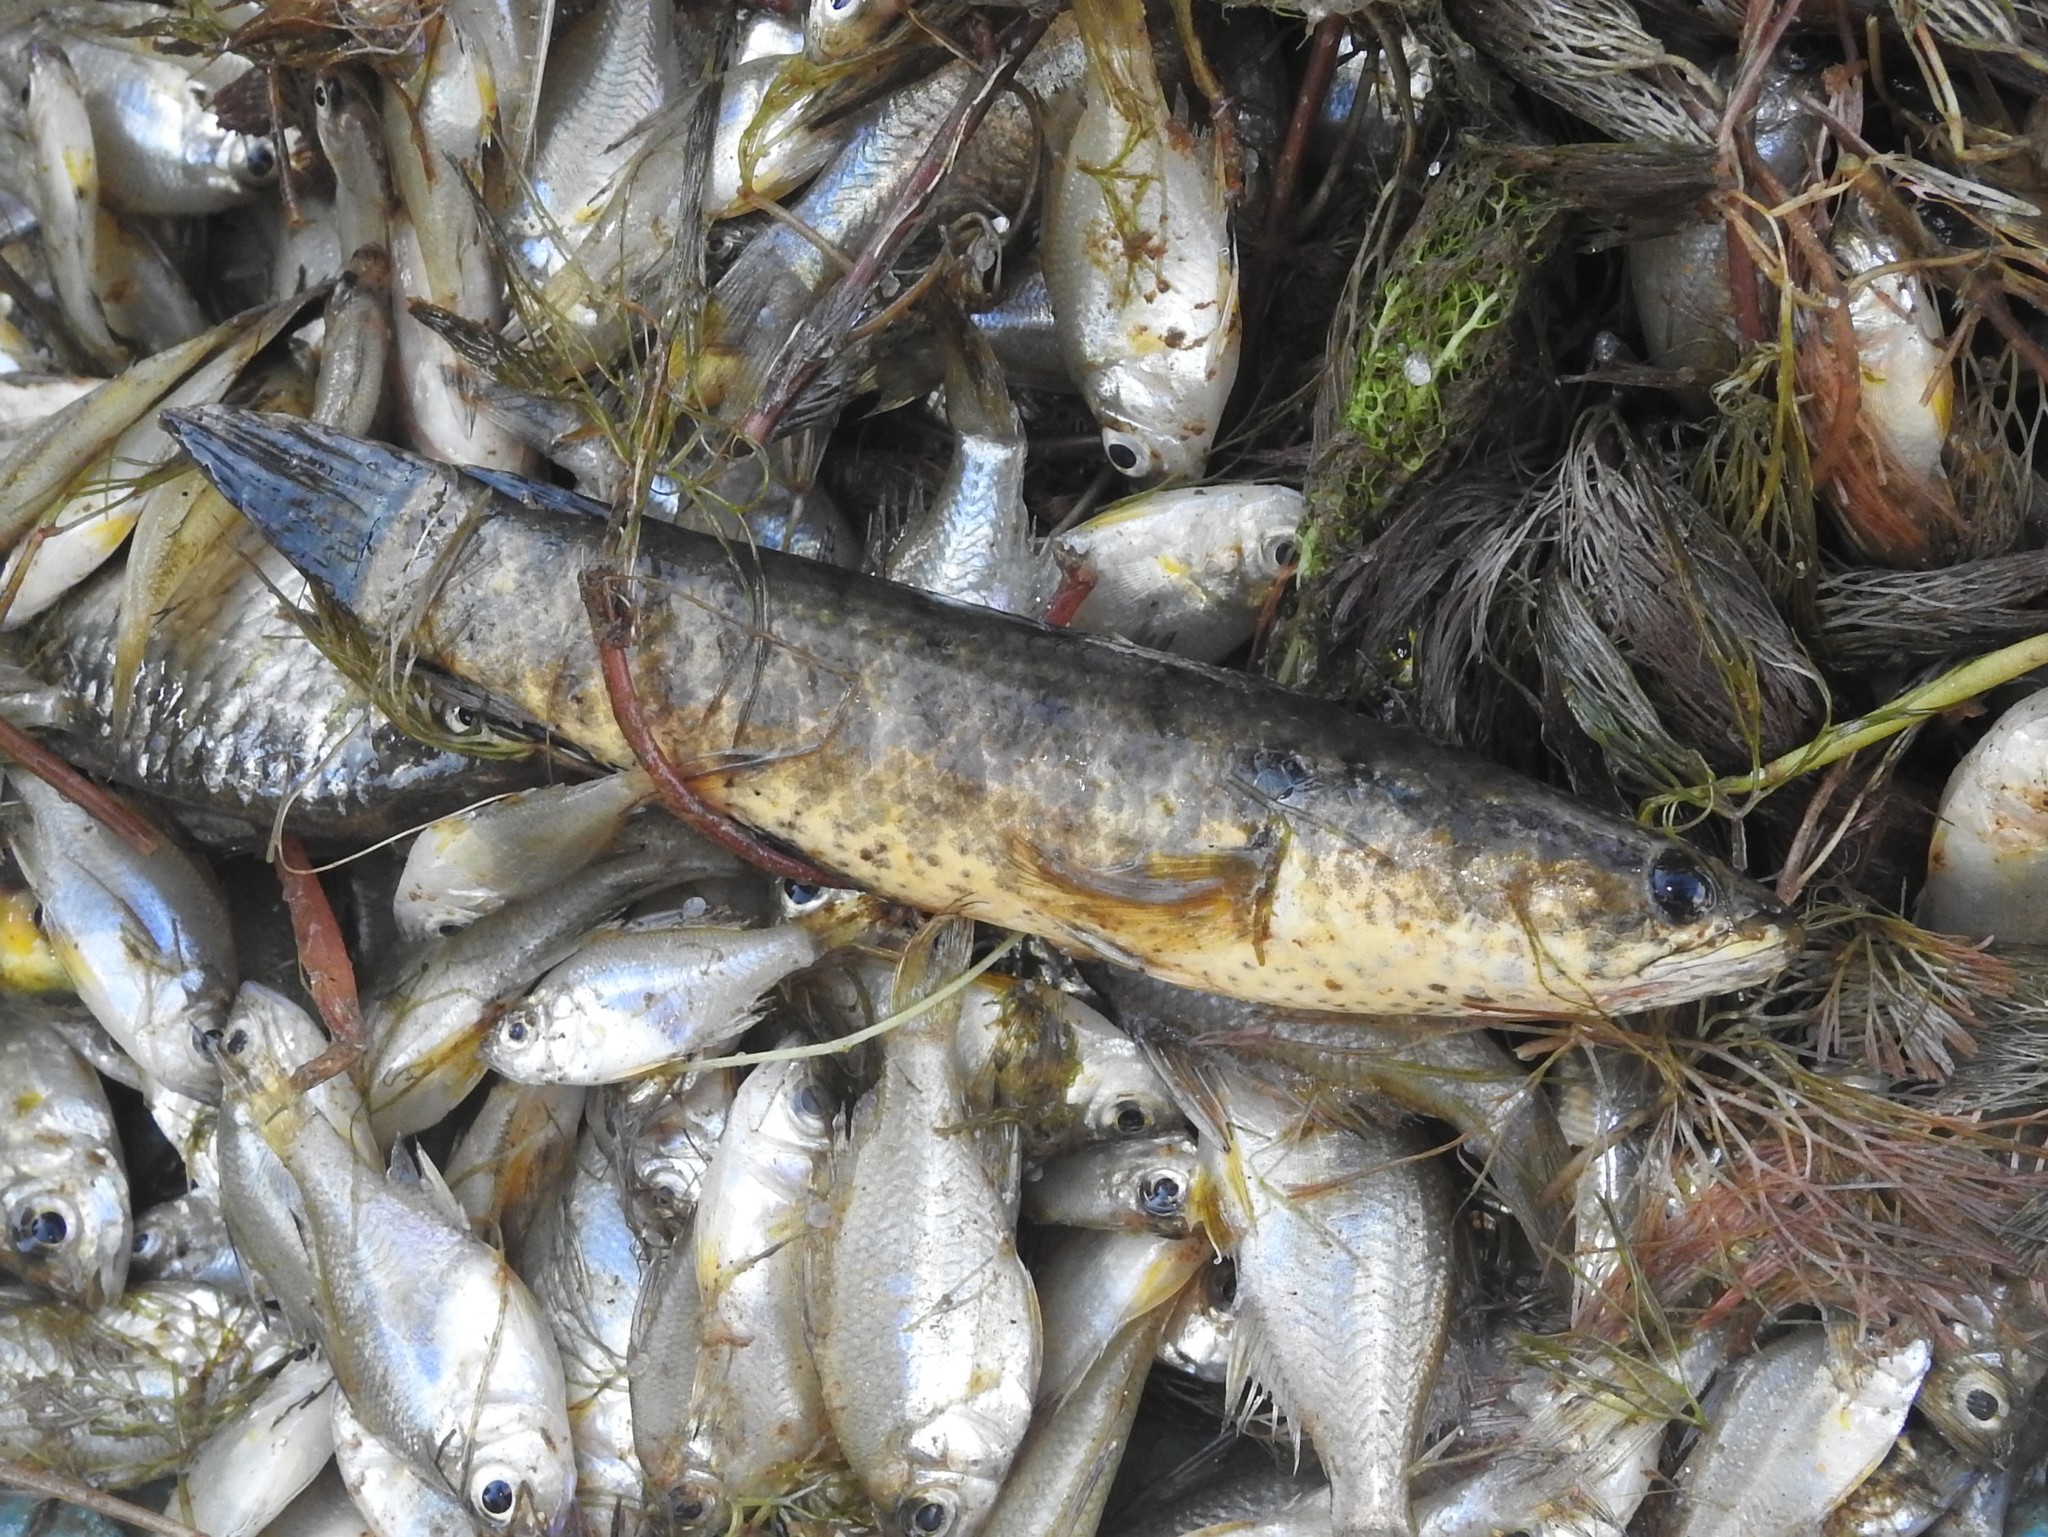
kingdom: Animalia
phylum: Chordata
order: Perciformes
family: Channidae
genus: Channa
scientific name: Channa punctata
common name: Spotted snakehead
